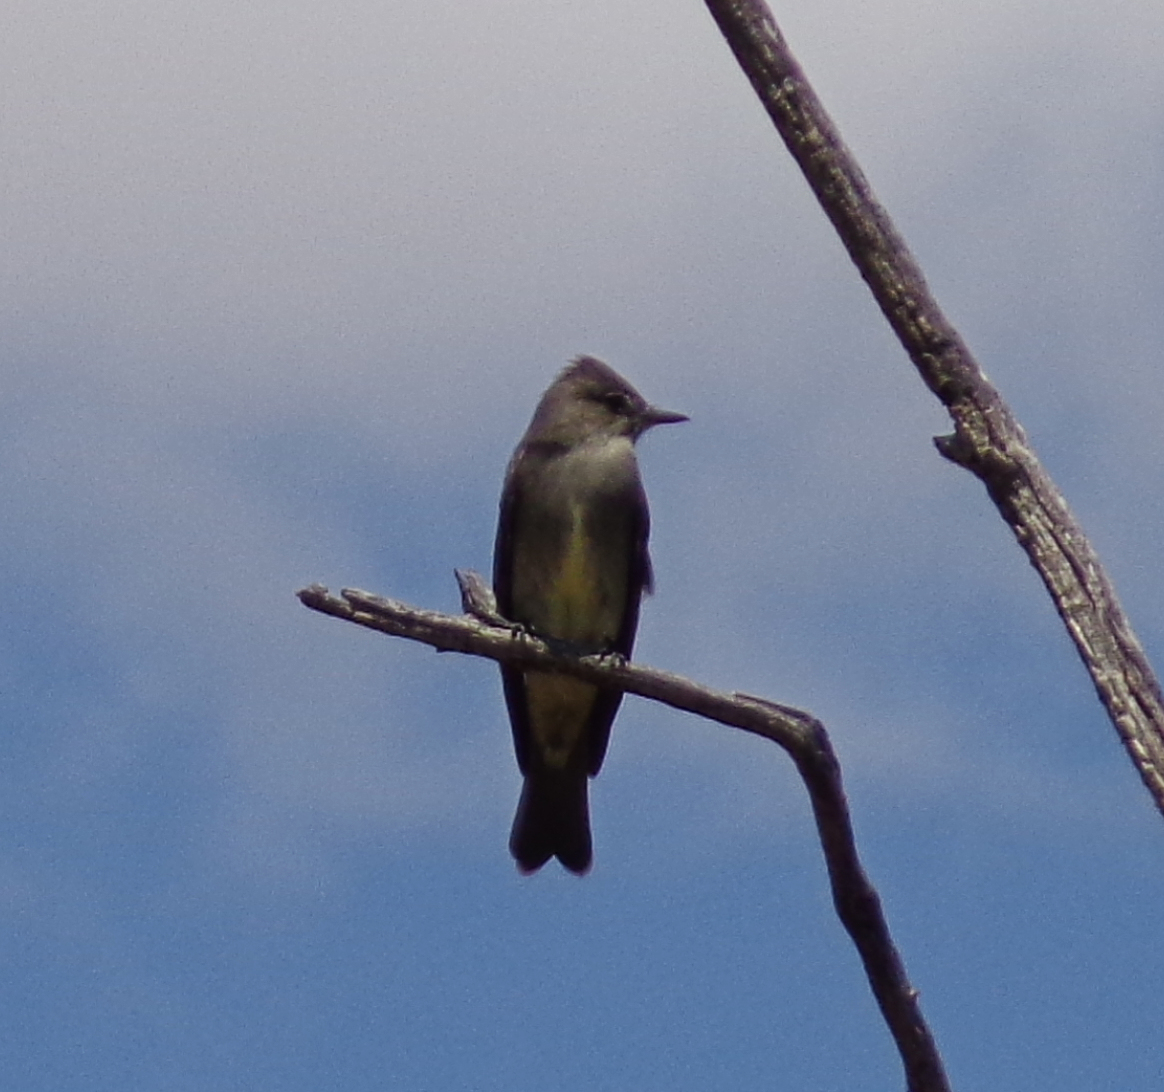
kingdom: Animalia
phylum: Chordata
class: Aves
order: Passeriformes
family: Tyrannidae
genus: Contopus
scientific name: Contopus sordidulus
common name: Western wood-pewee
